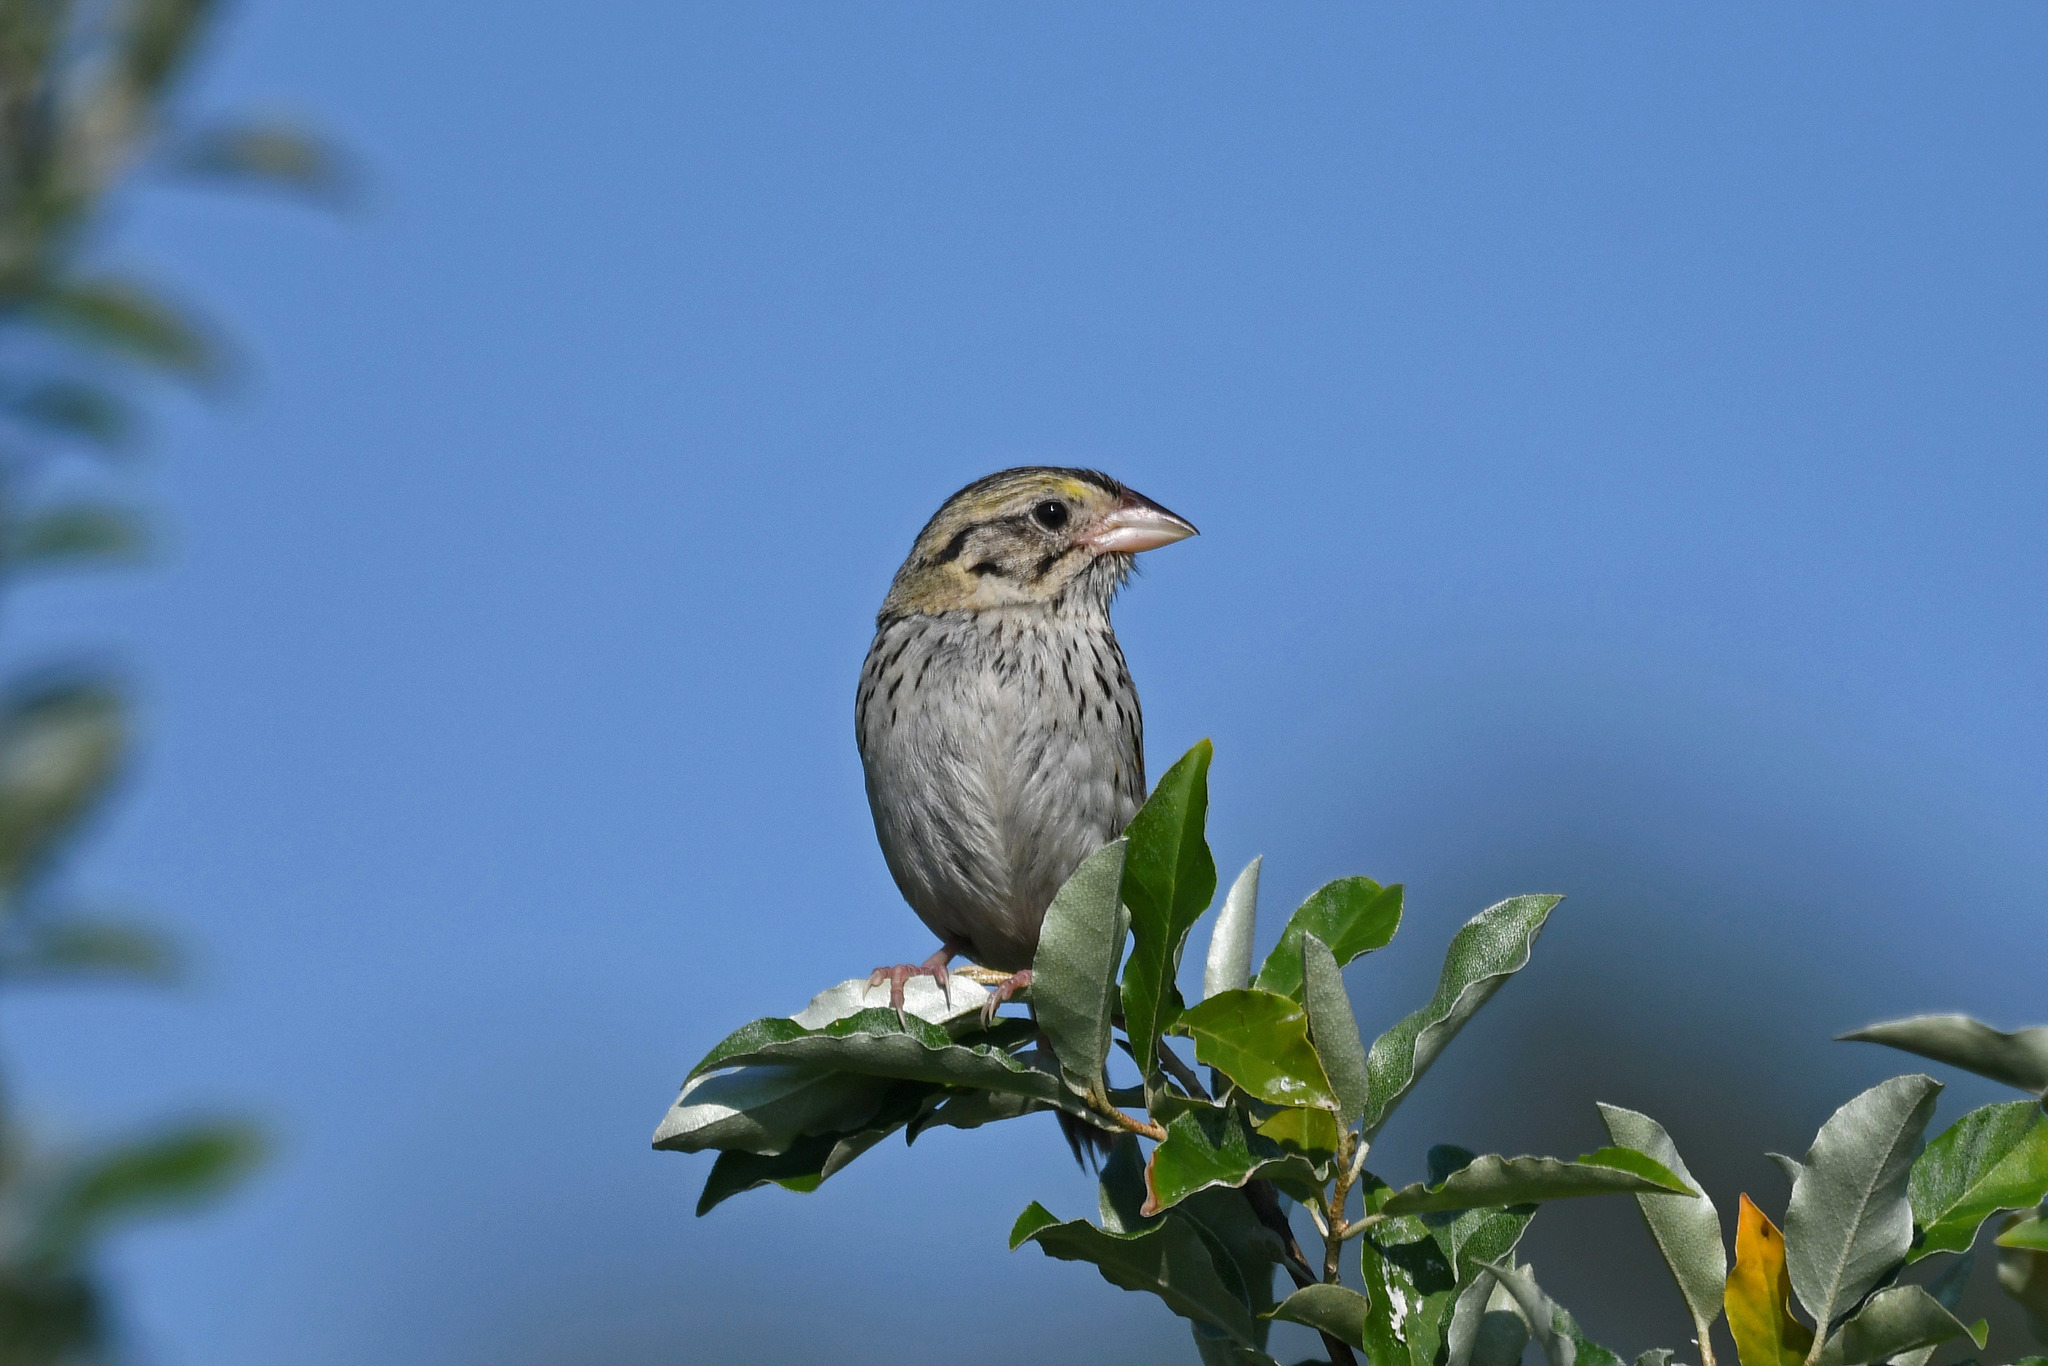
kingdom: Animalia
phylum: Chordata
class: Aves
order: Passeriformes
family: Passerellidae
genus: Centronyx
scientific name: Centronyx henslowii
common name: Henslow's sparrow
